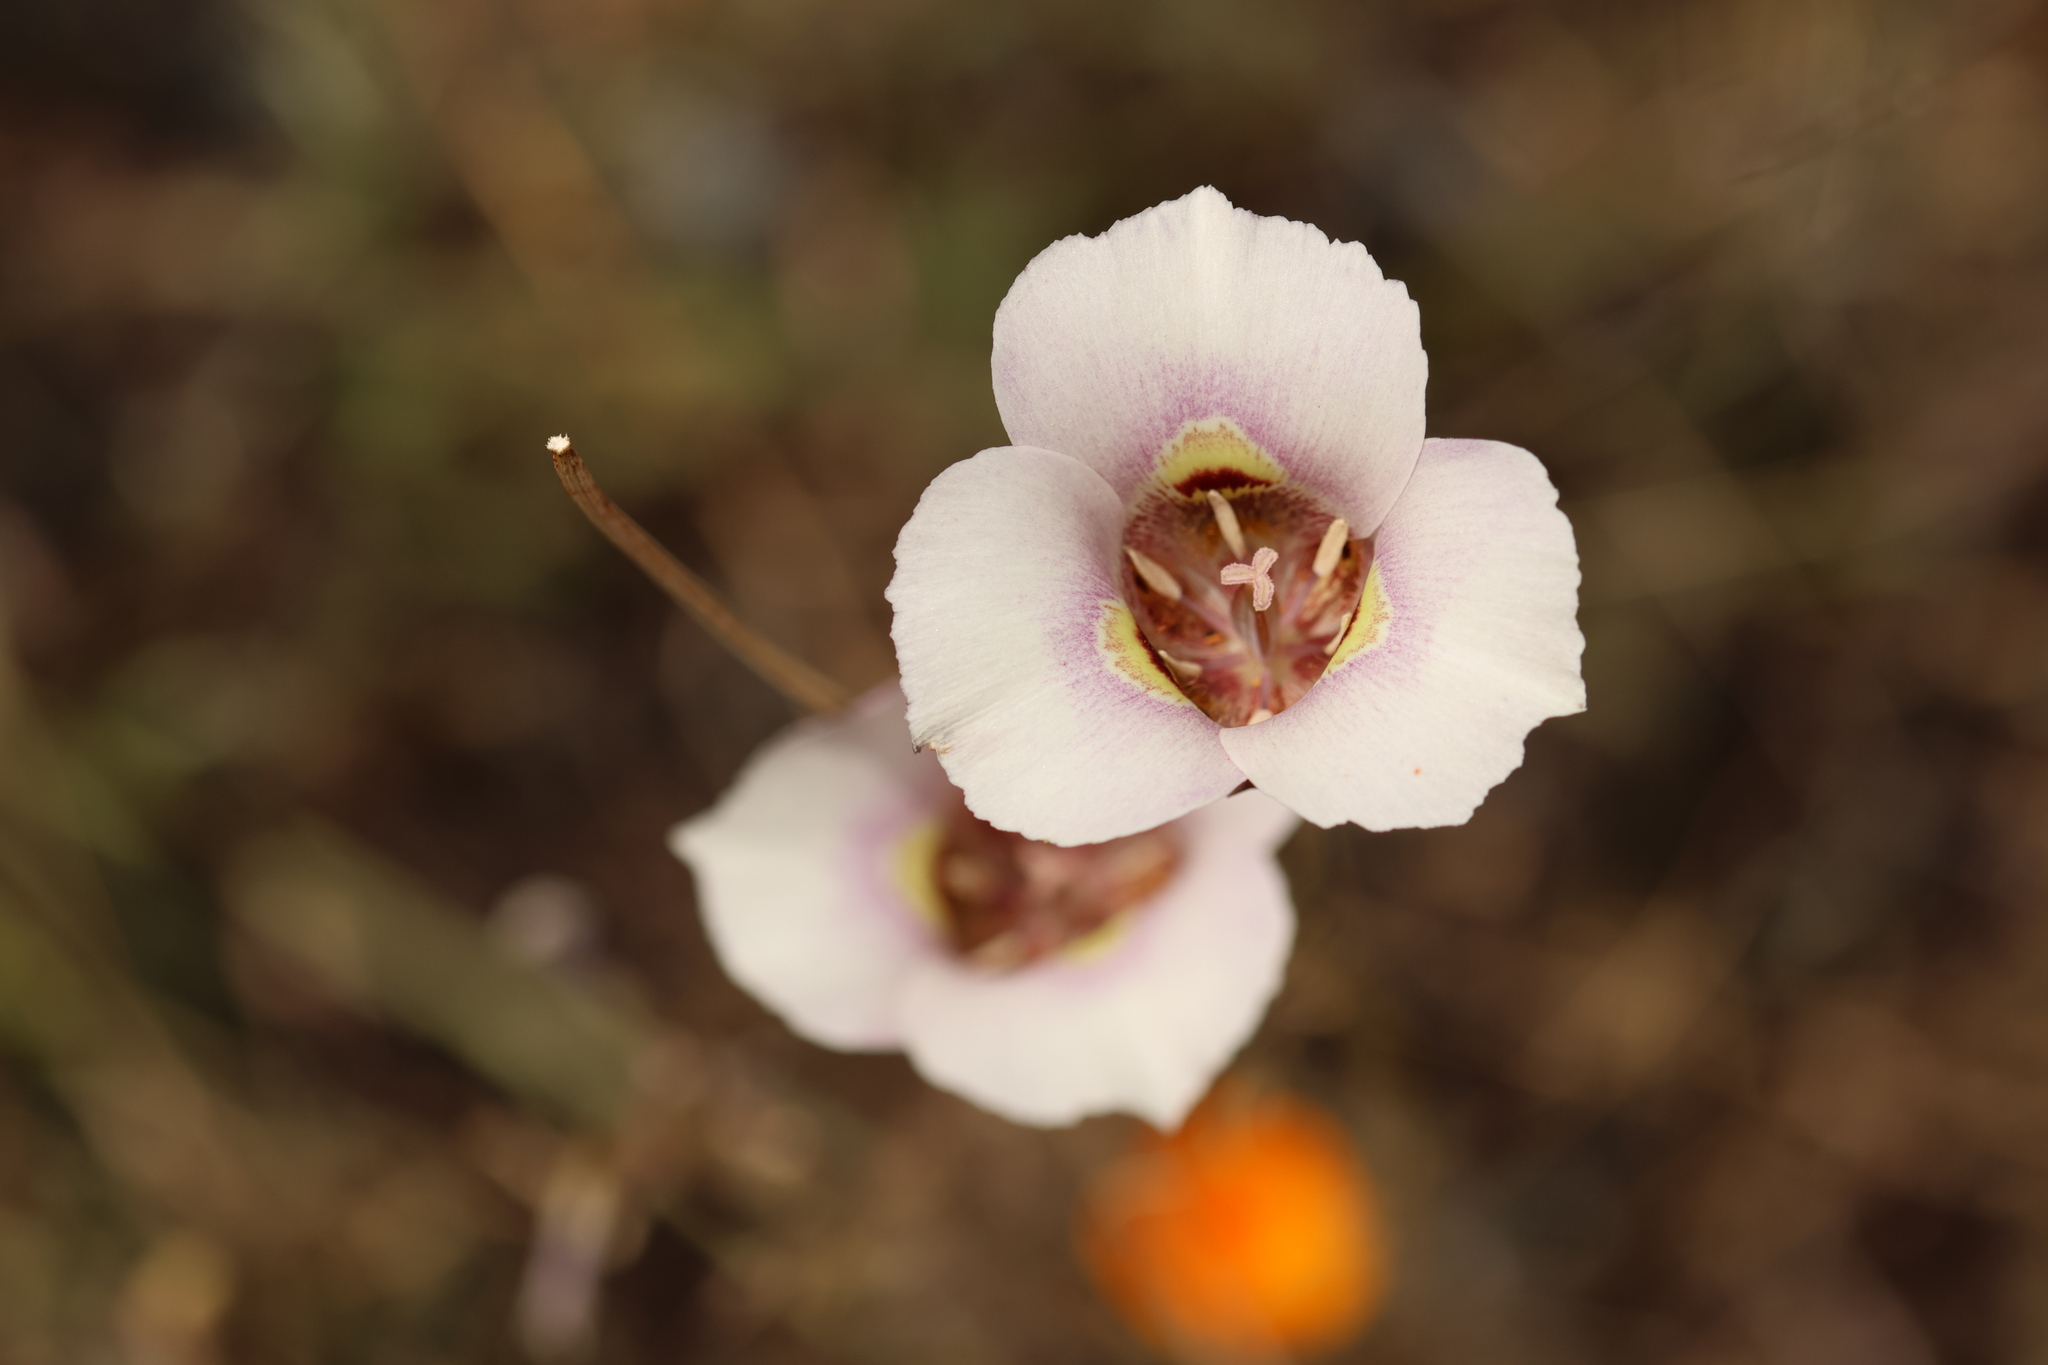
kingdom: Plantae
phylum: Tracheophyta
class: Liliopsida
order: Liliales
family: Liliaceae
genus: Calochortus
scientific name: Calochortus argillosus
